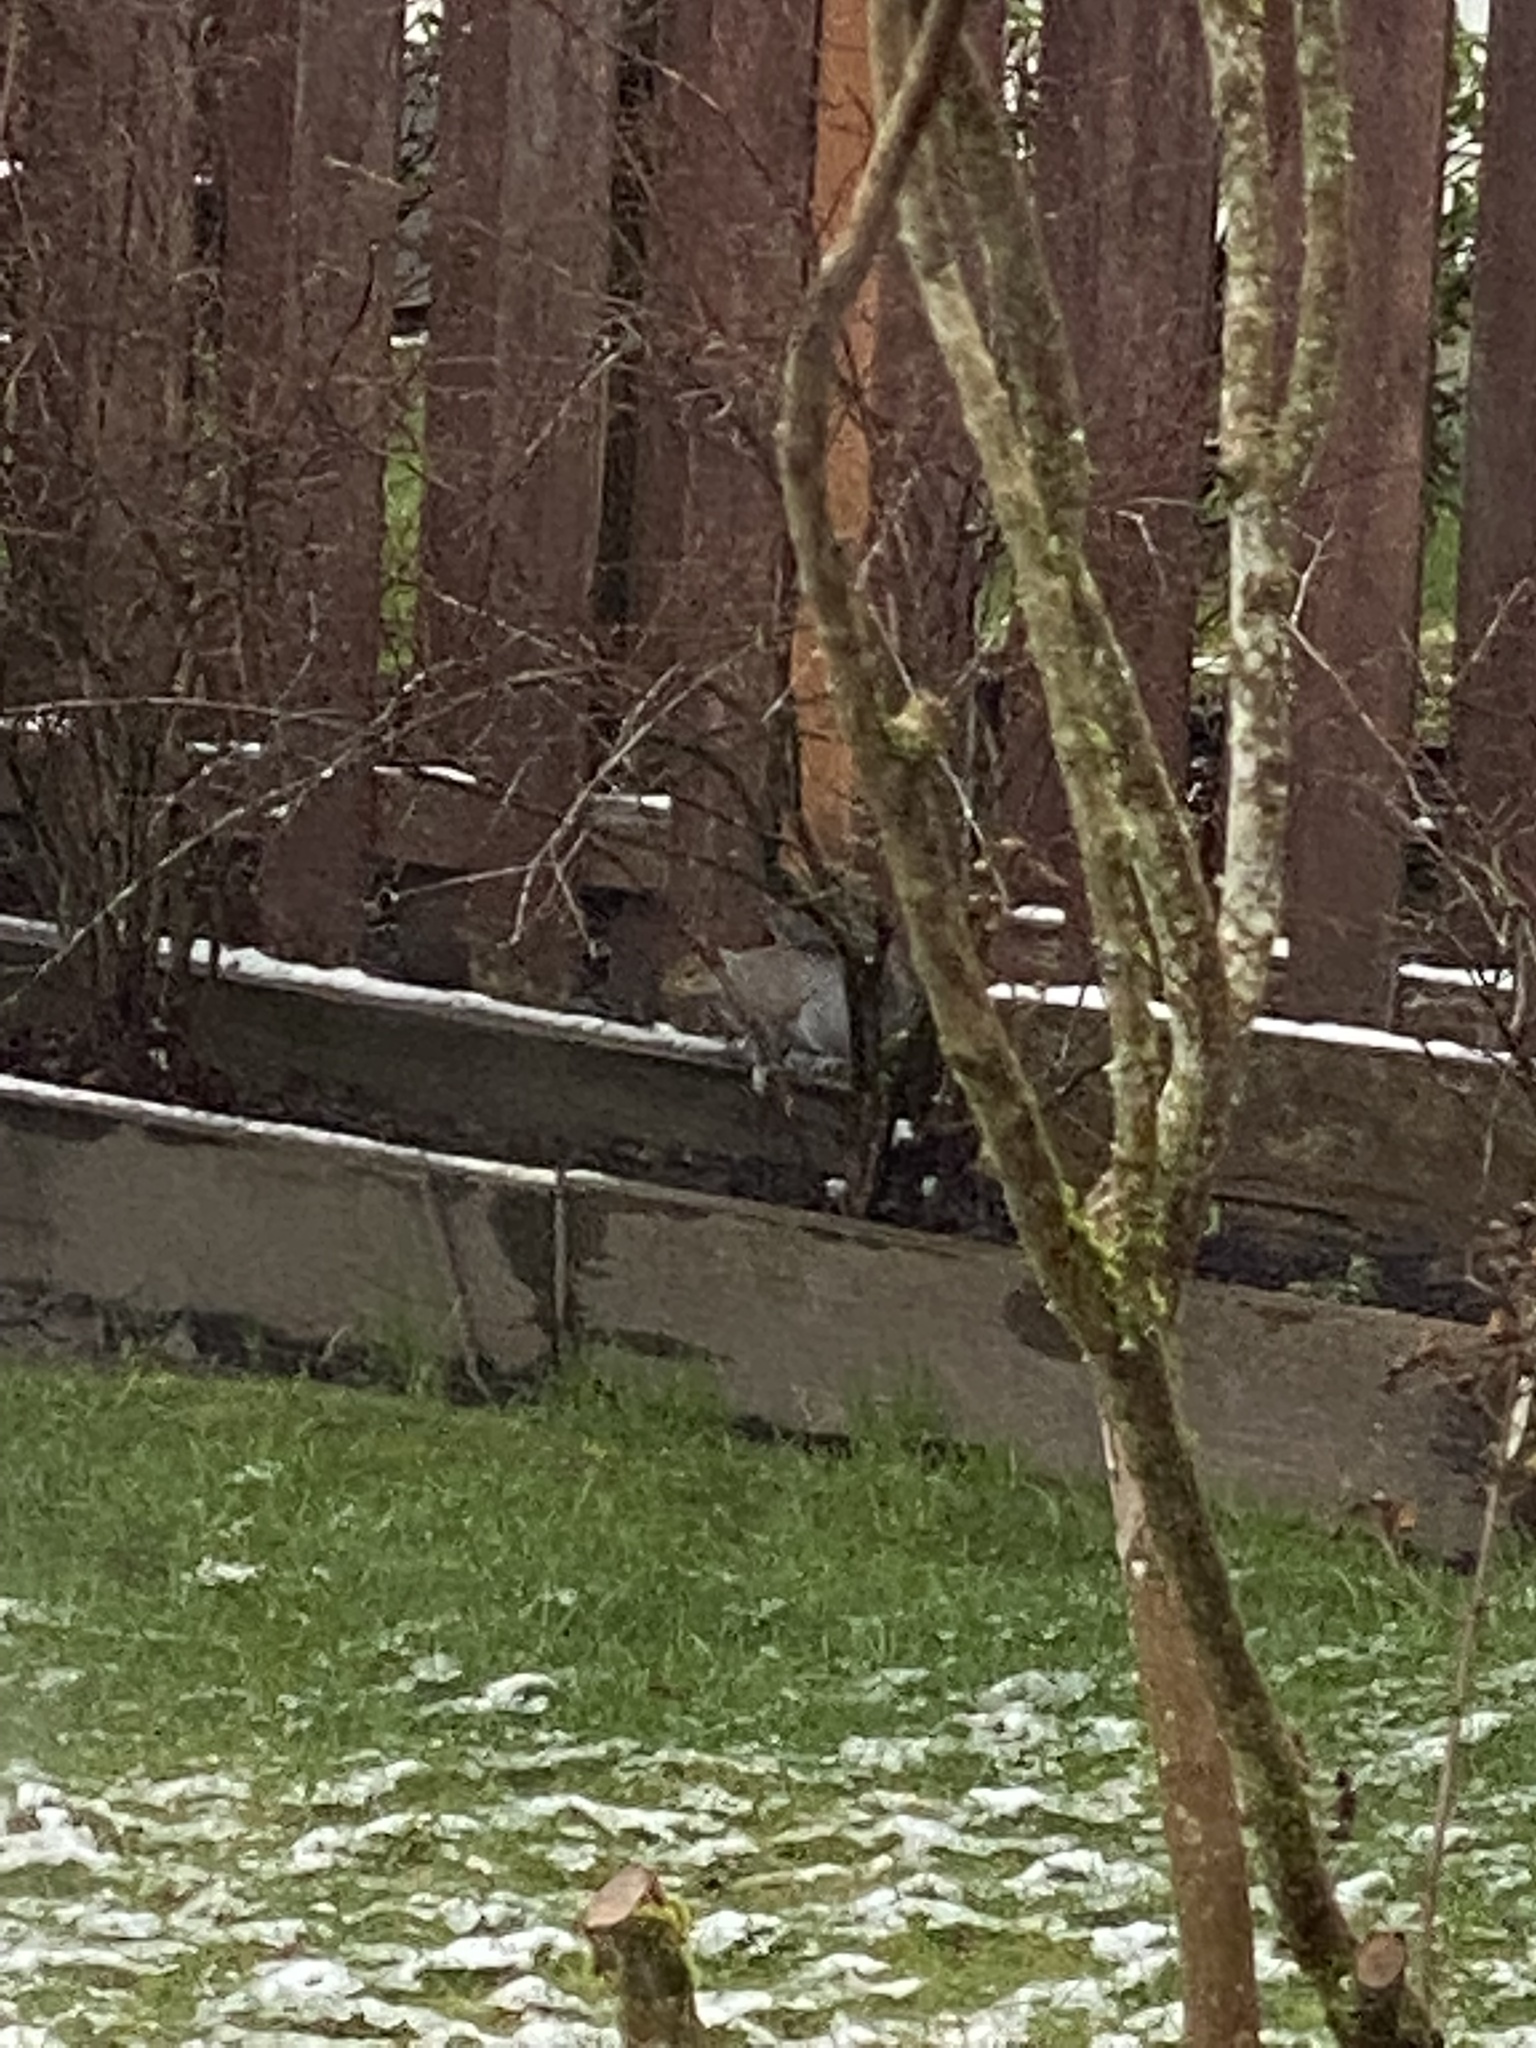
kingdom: Animalia
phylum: Chordata
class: Mammalia
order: Rodentia
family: Sciuridae
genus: Sciurus
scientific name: Sciurus carolinensis
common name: Eastern gray squirrel
